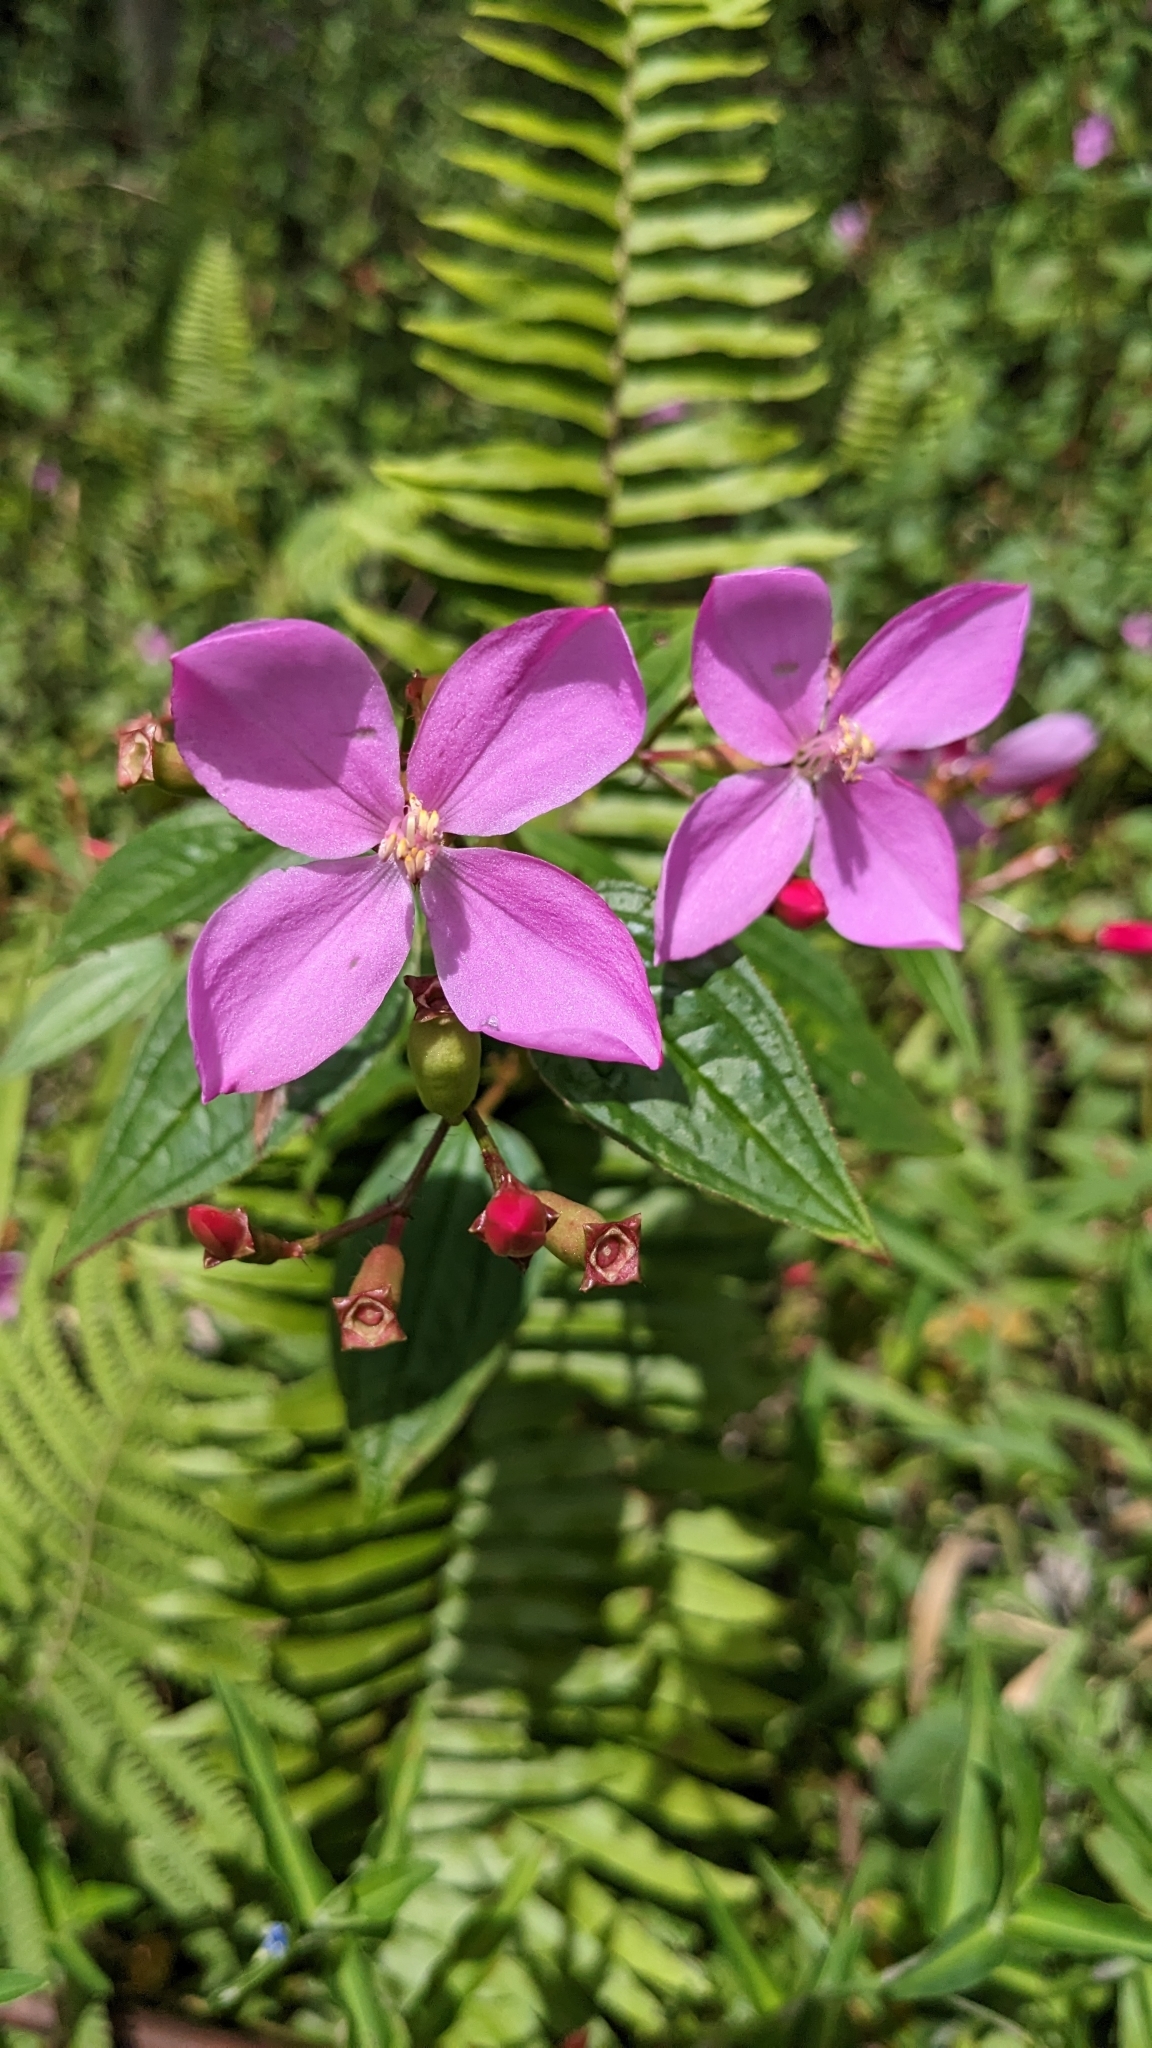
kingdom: Plantae
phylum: Tracheophyta
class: Magnoliopsida
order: Myrtales
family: Melastomataceae
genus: Arthrostemma
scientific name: Arthrostemma ciliatum
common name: Everblooming eavender
